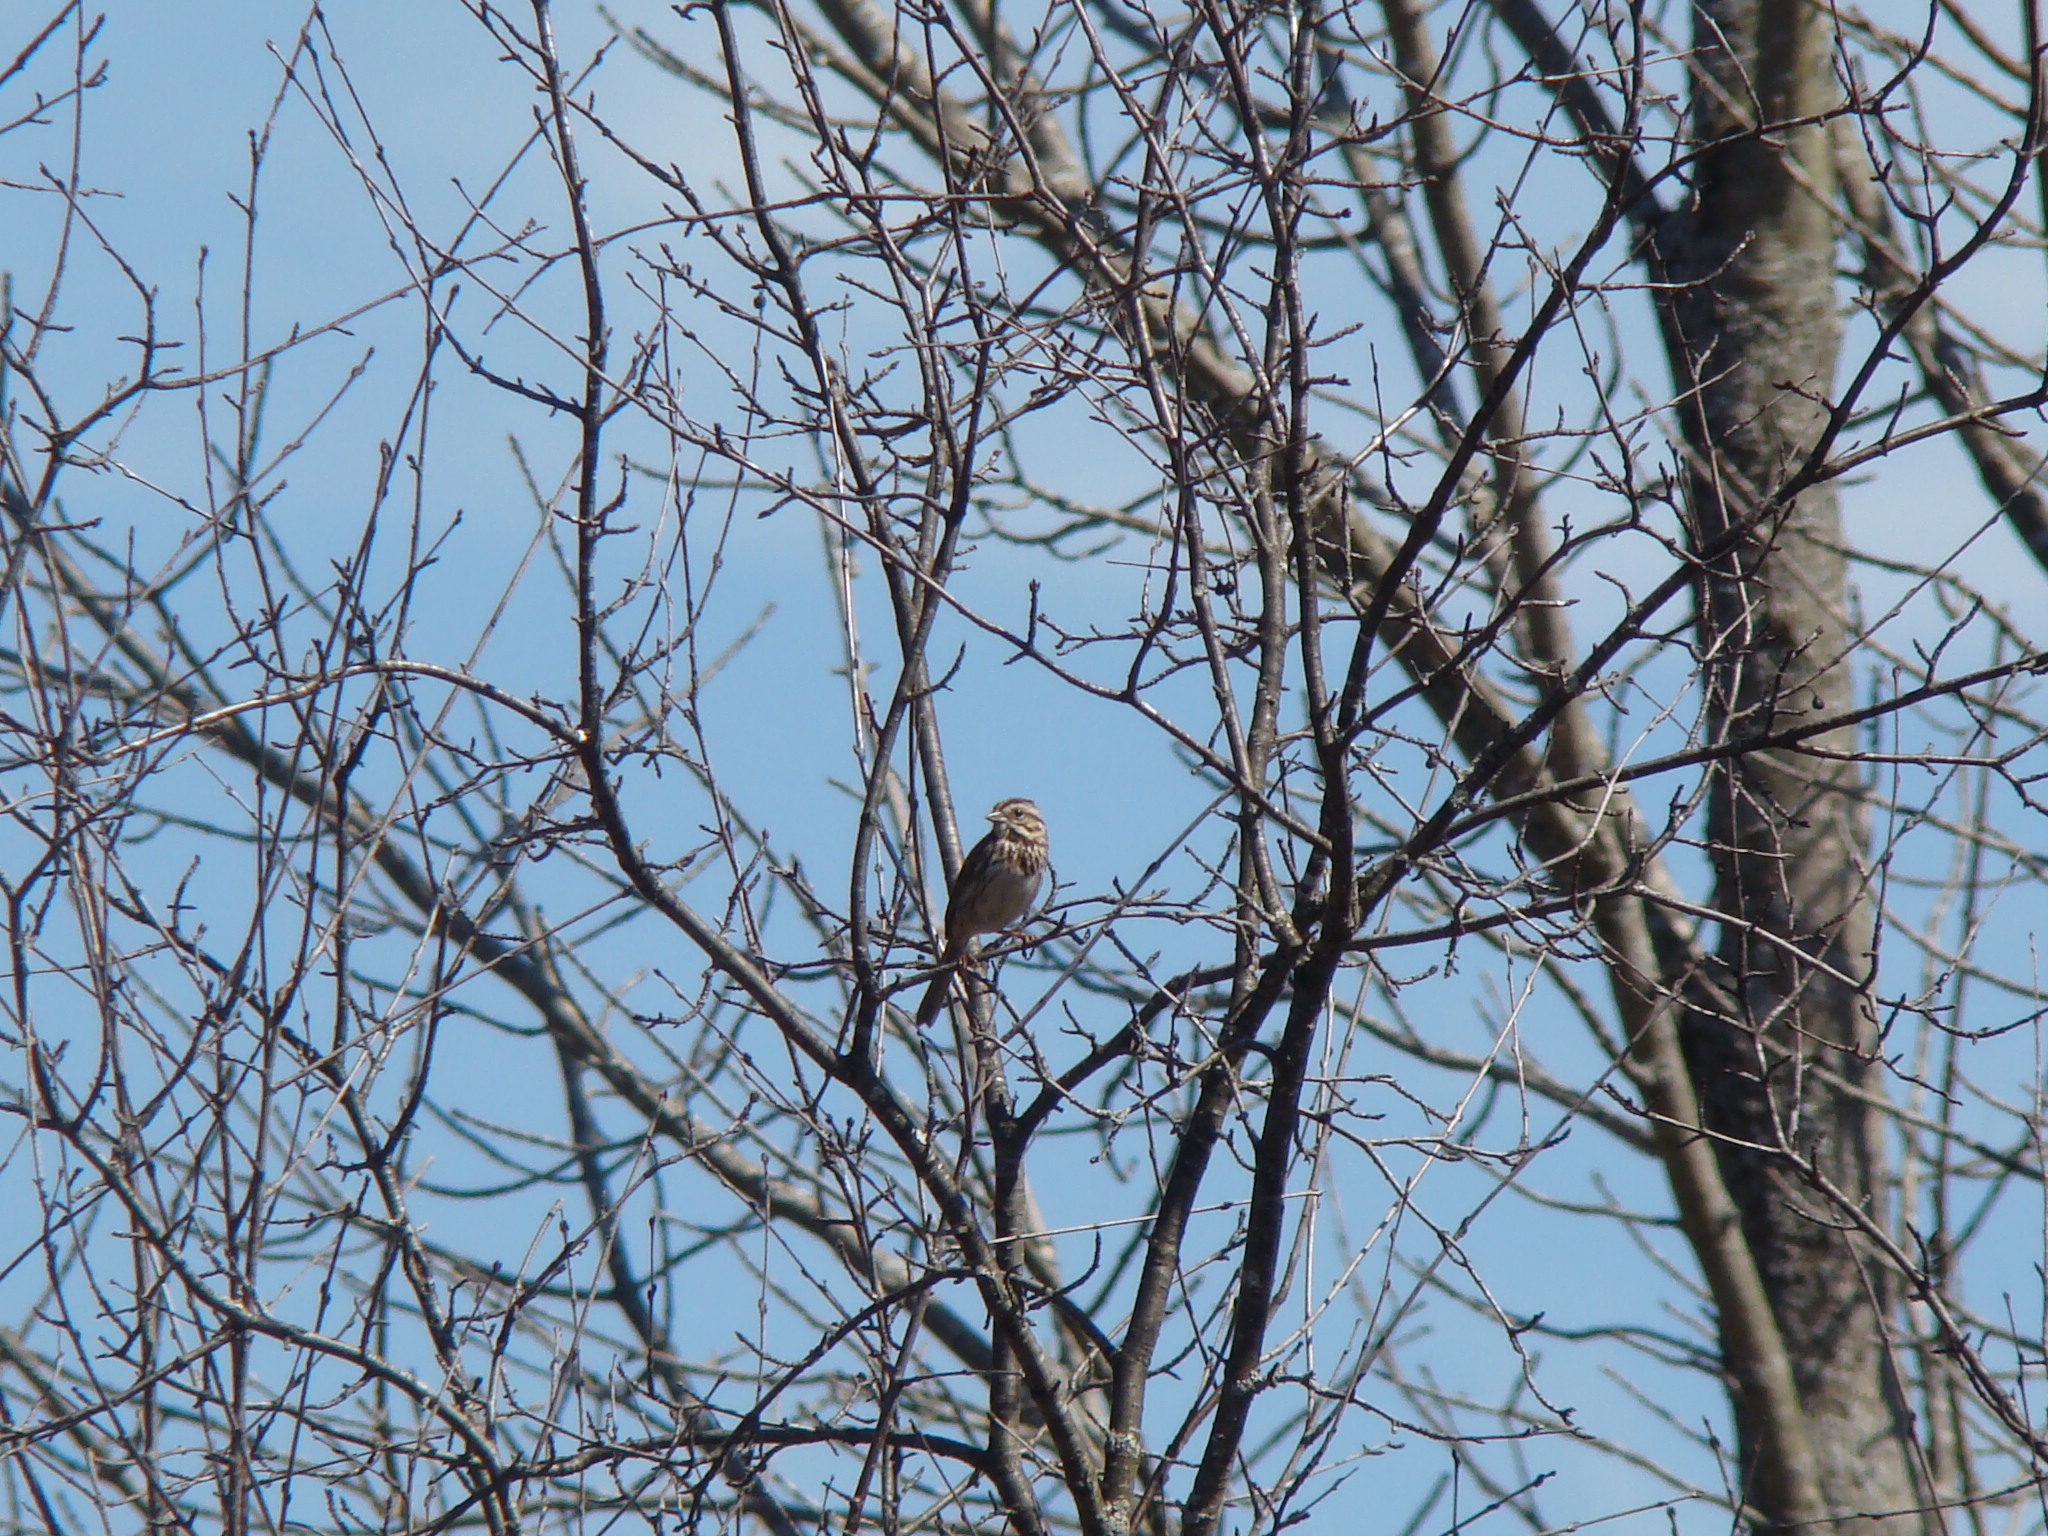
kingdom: Animalia
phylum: Chordata
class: Aves
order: Passeriformes
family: Passerellidae
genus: Melospiza
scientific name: Melospiza melodia
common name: Song sparrow
